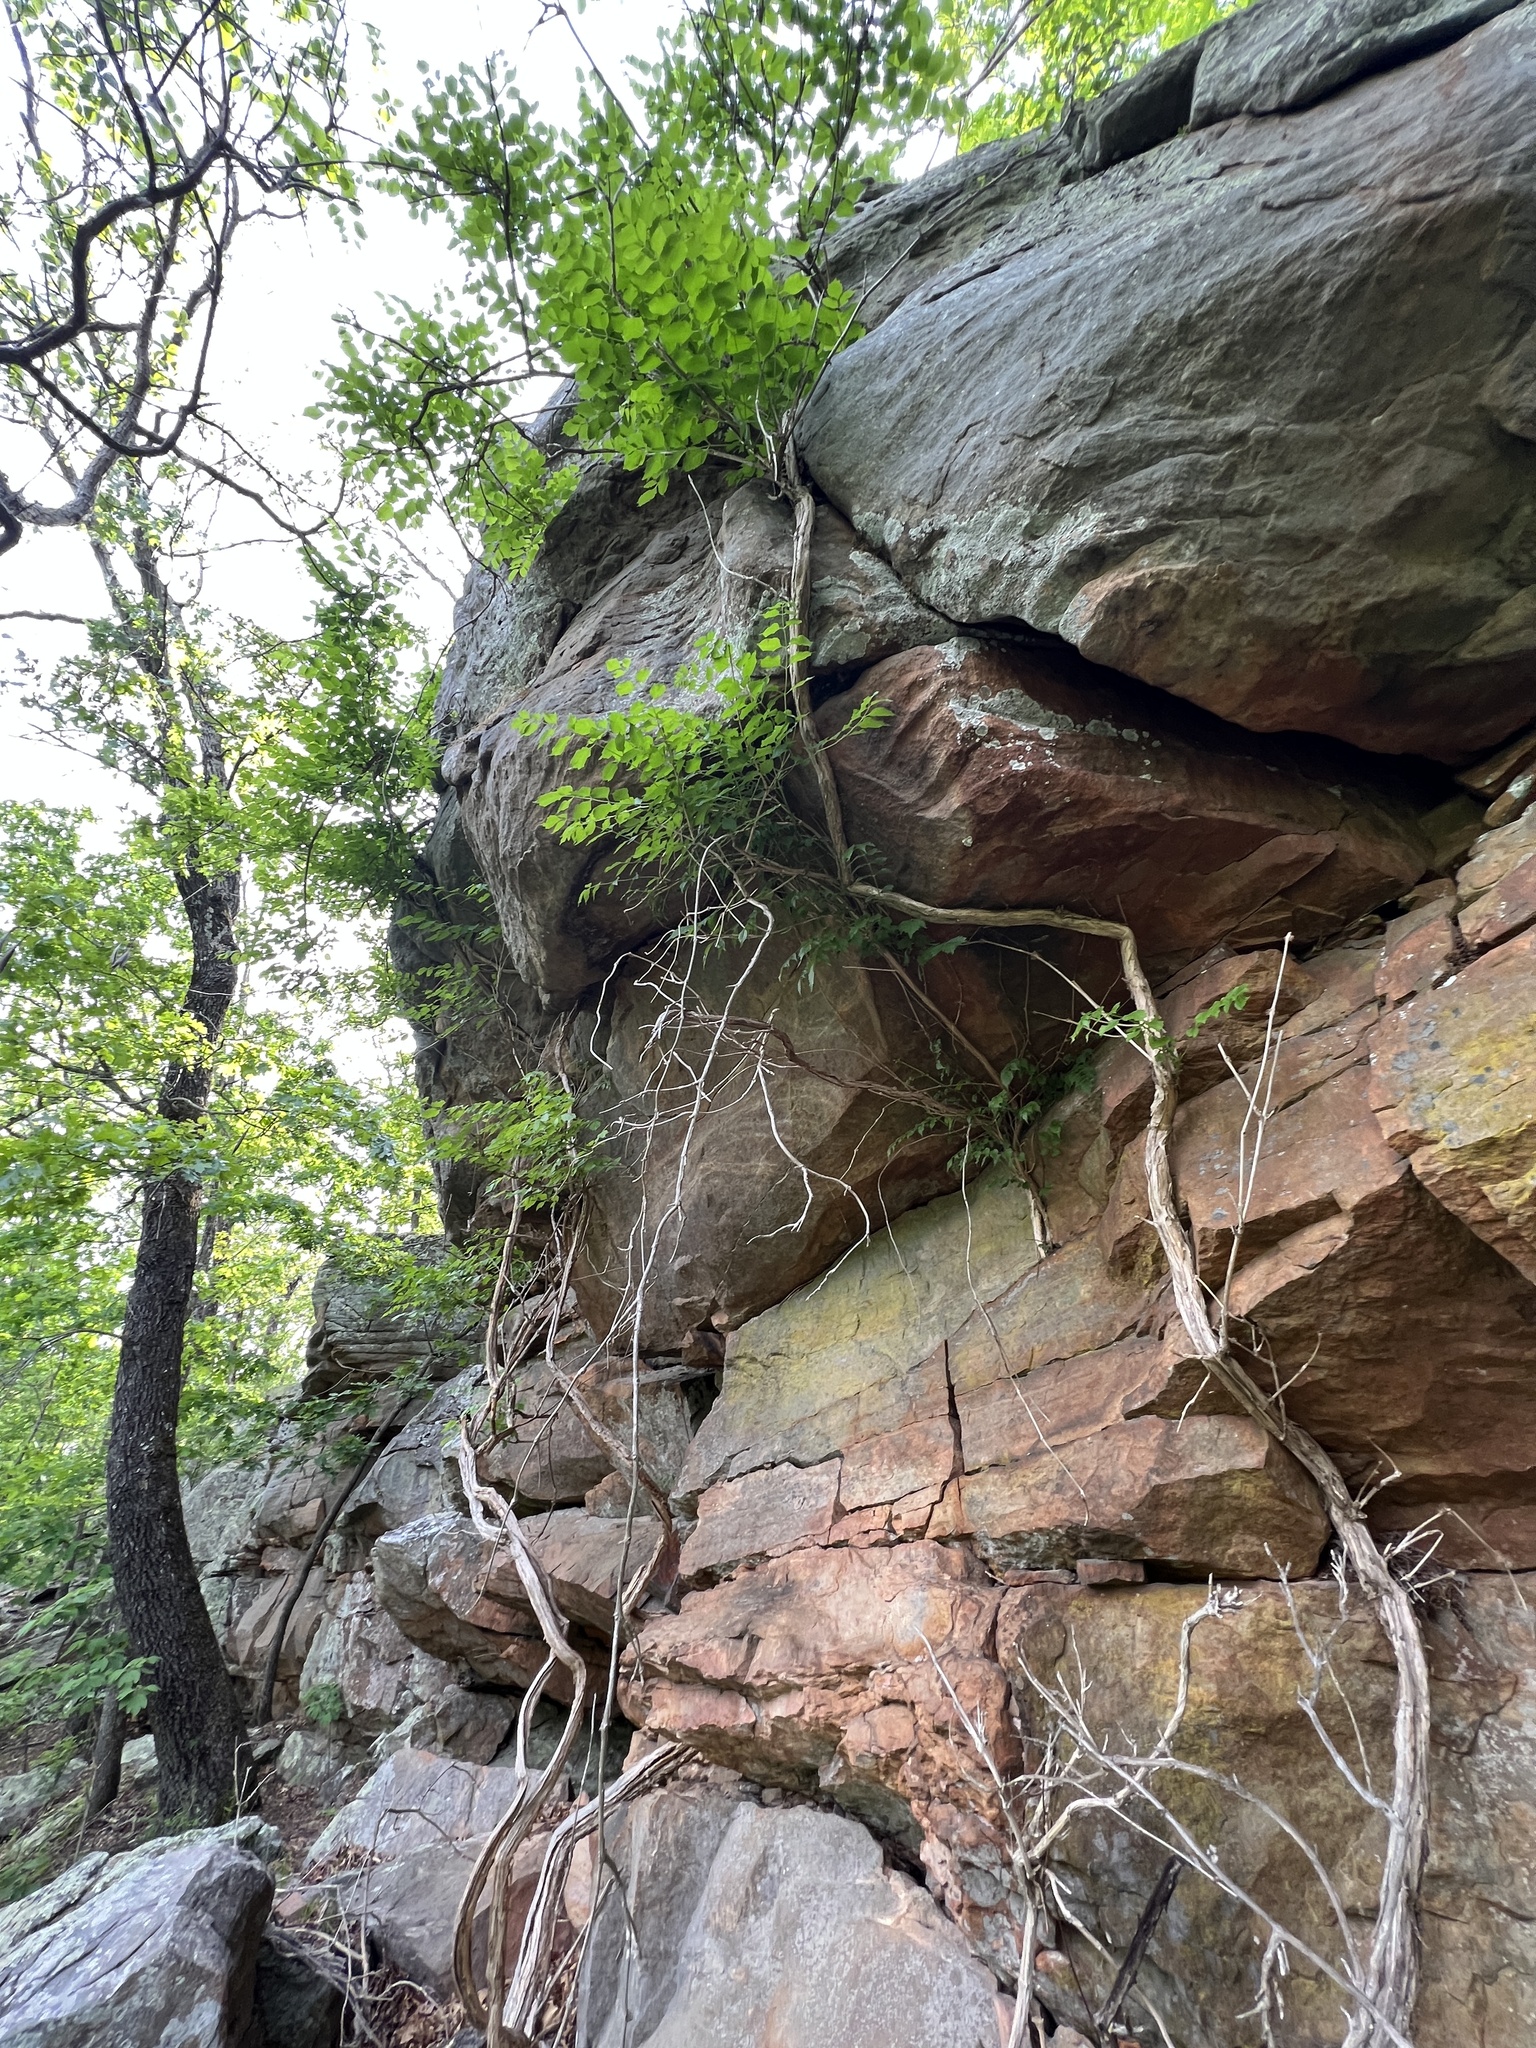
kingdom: Plantae
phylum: Tracheophyta
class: Magnoliopsida
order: Lamiales
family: Bignoniaceae
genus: Campsis
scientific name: Campsis radicans
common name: Trumpet-creeper
